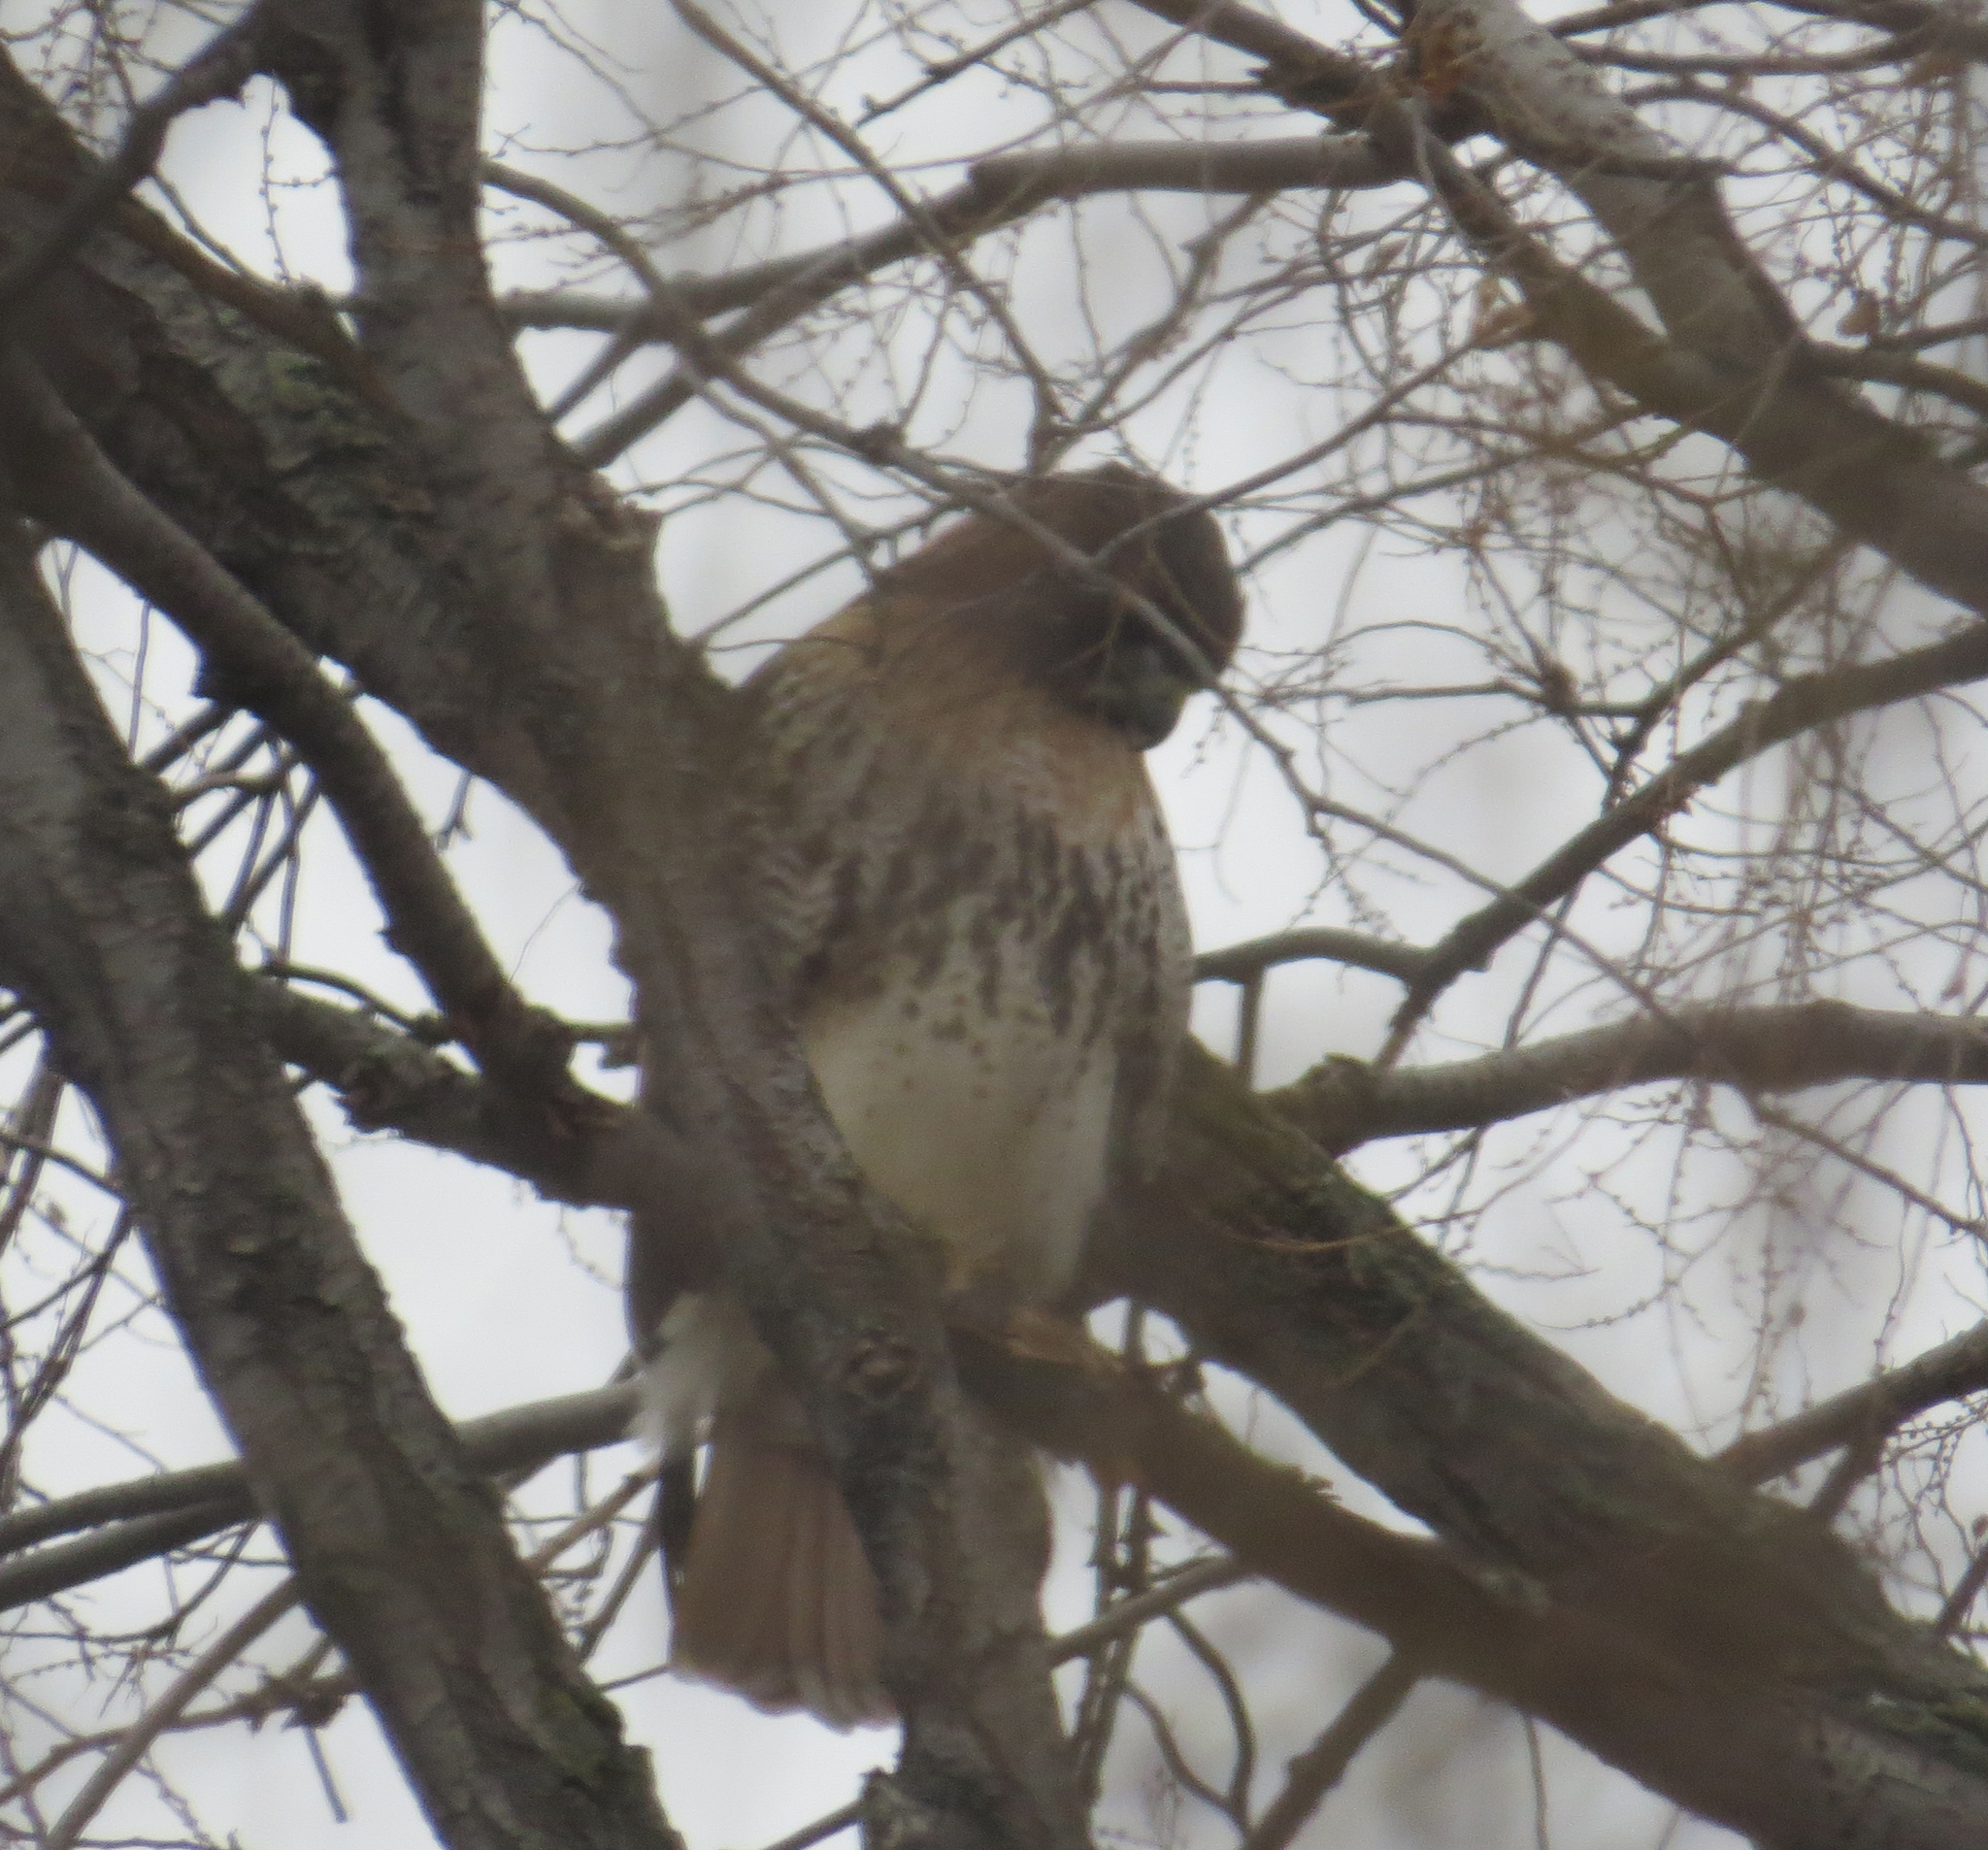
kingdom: Animalia
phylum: Chordata
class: Aves
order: Accipitriformes
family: Accipitridae
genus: Buteo
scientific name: Buteo jamaicensis
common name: Red-tailed hawk
